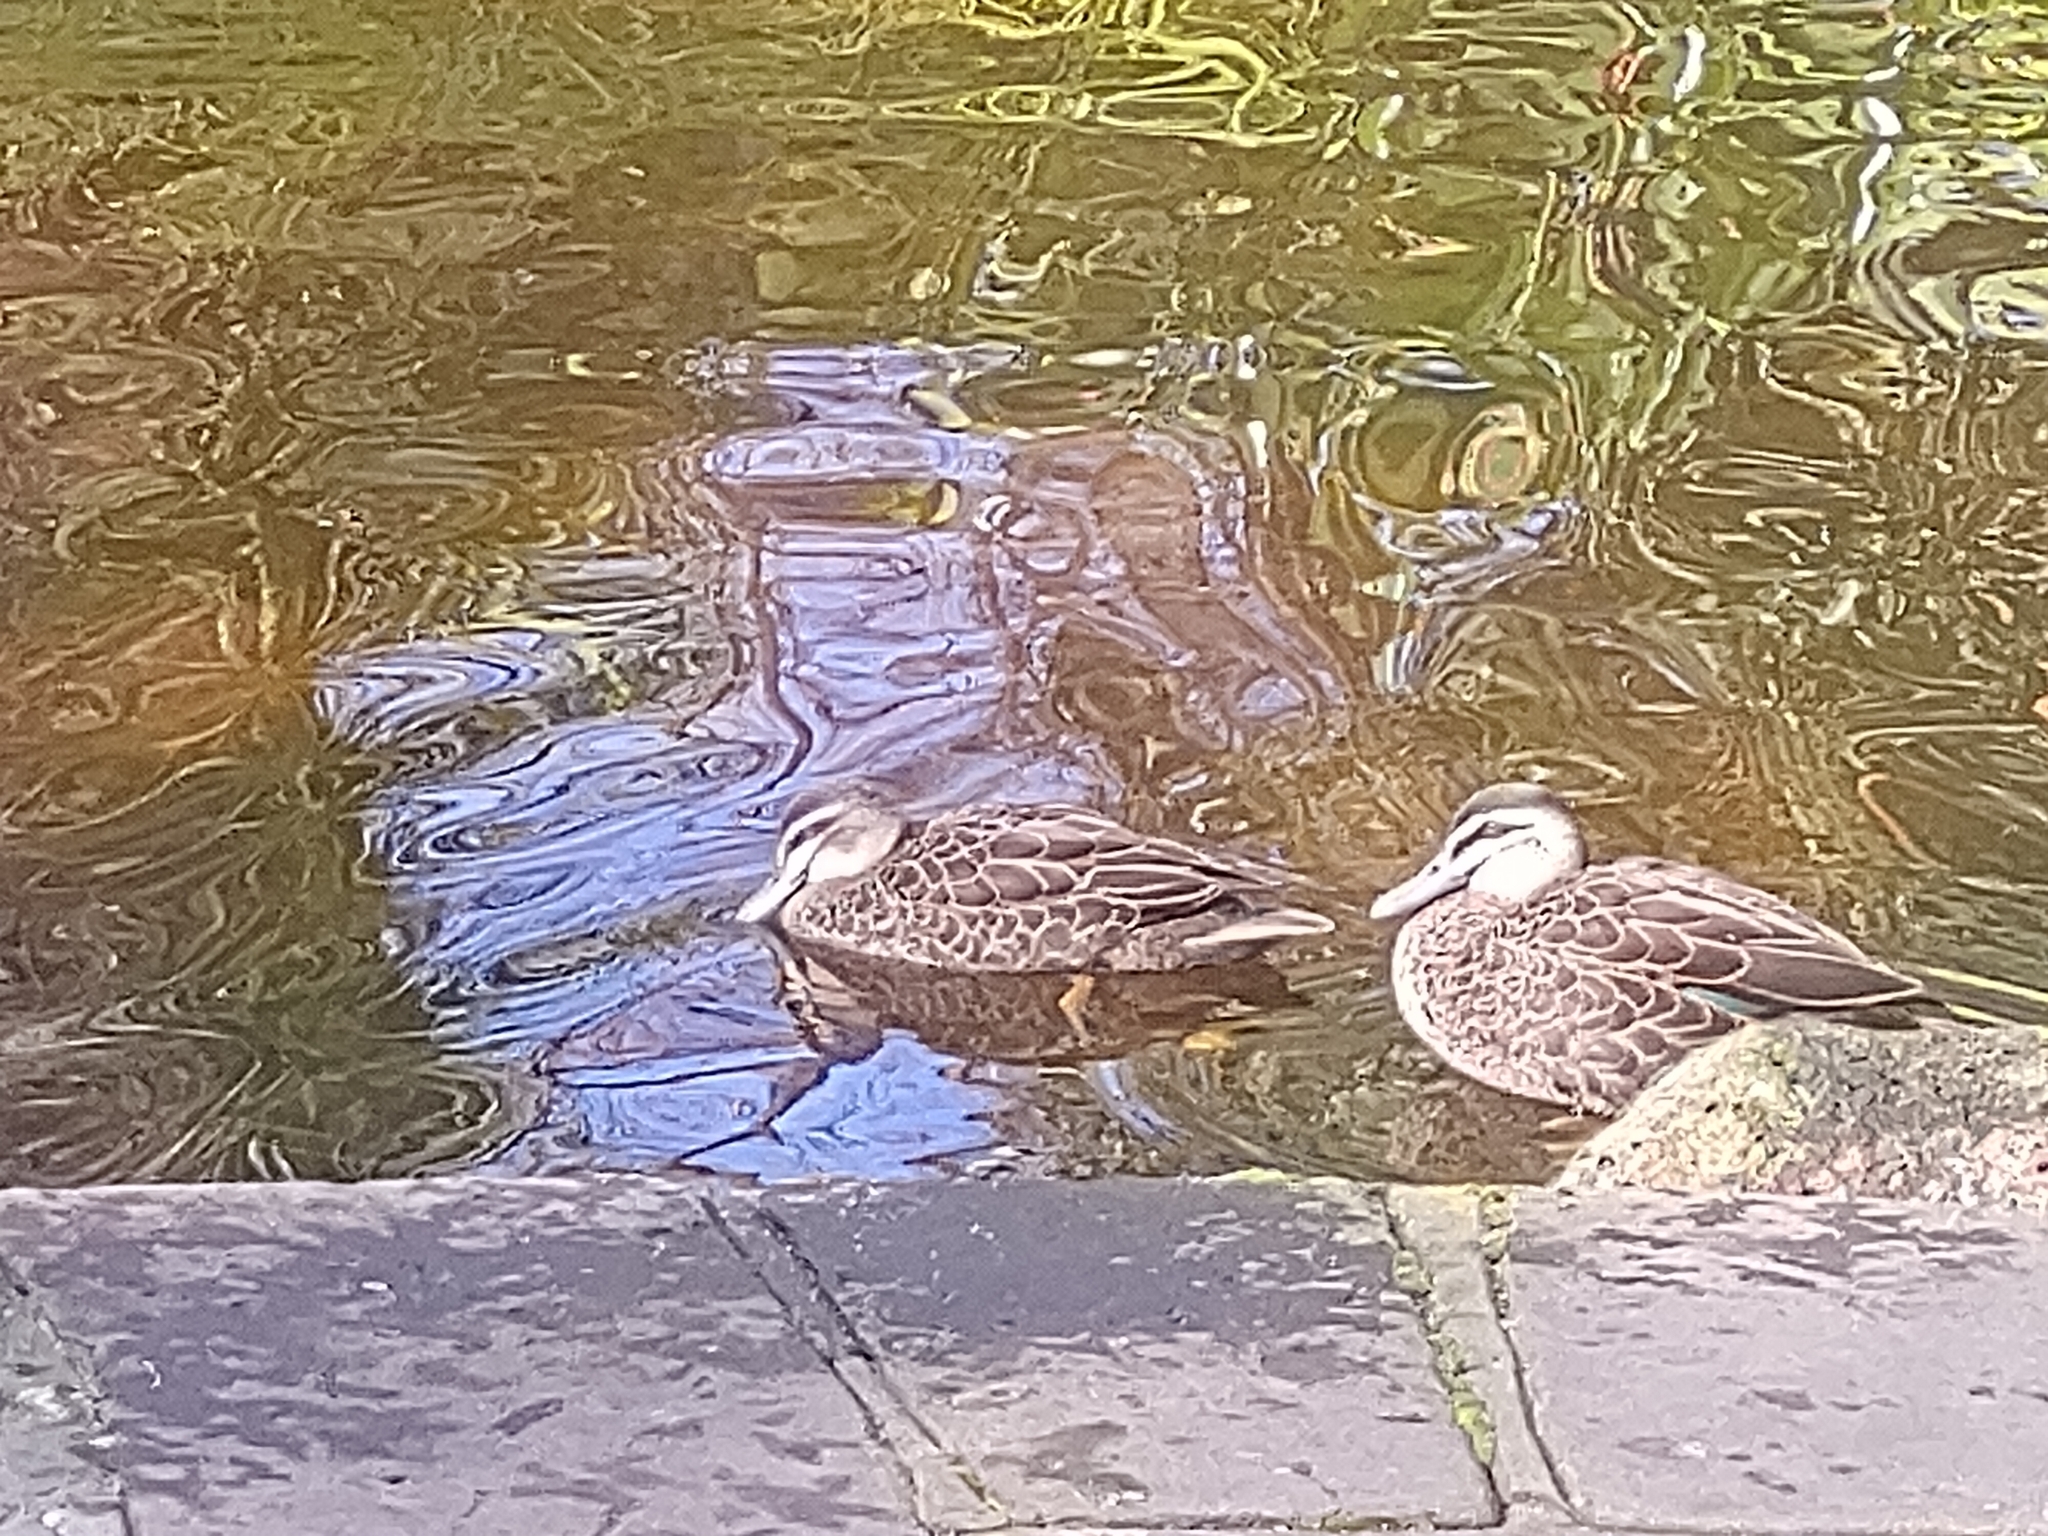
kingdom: Animalia
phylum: Chordata
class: Aves
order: Anseriformes
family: Anatidae
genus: Anas
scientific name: Anas superciliosa
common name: Pacific black duck
